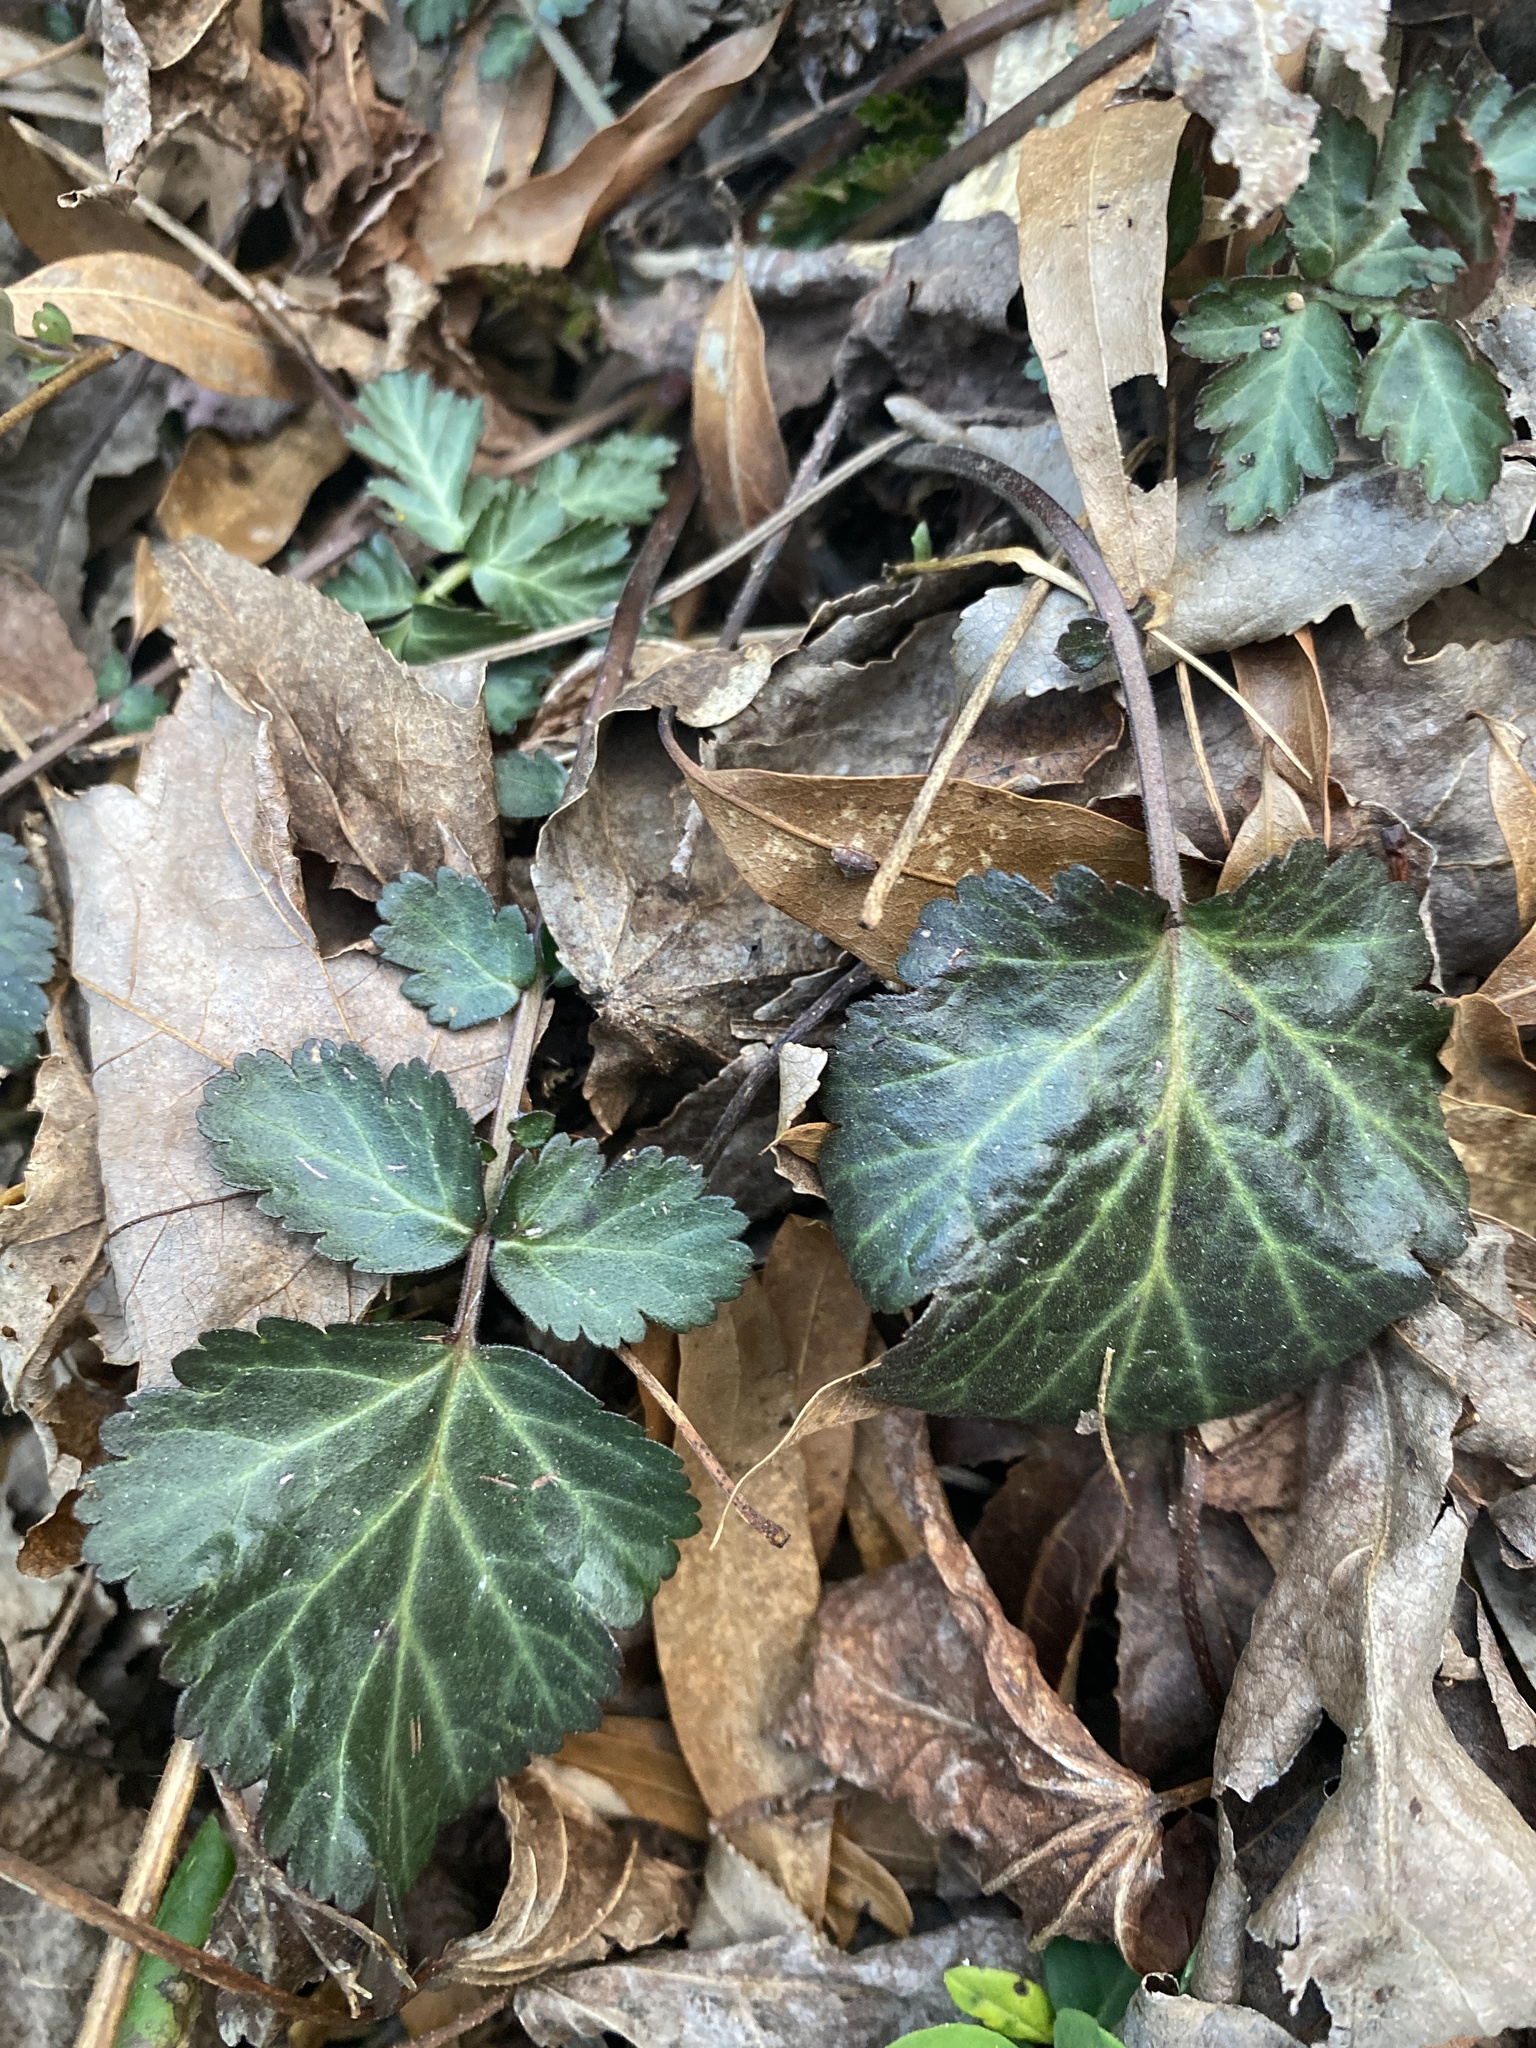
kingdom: Plantae
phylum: Tracheophyta
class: Magnoliopsida
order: Rosales
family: Rosaceae
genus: Geum
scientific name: Geum canadense
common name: White avens
